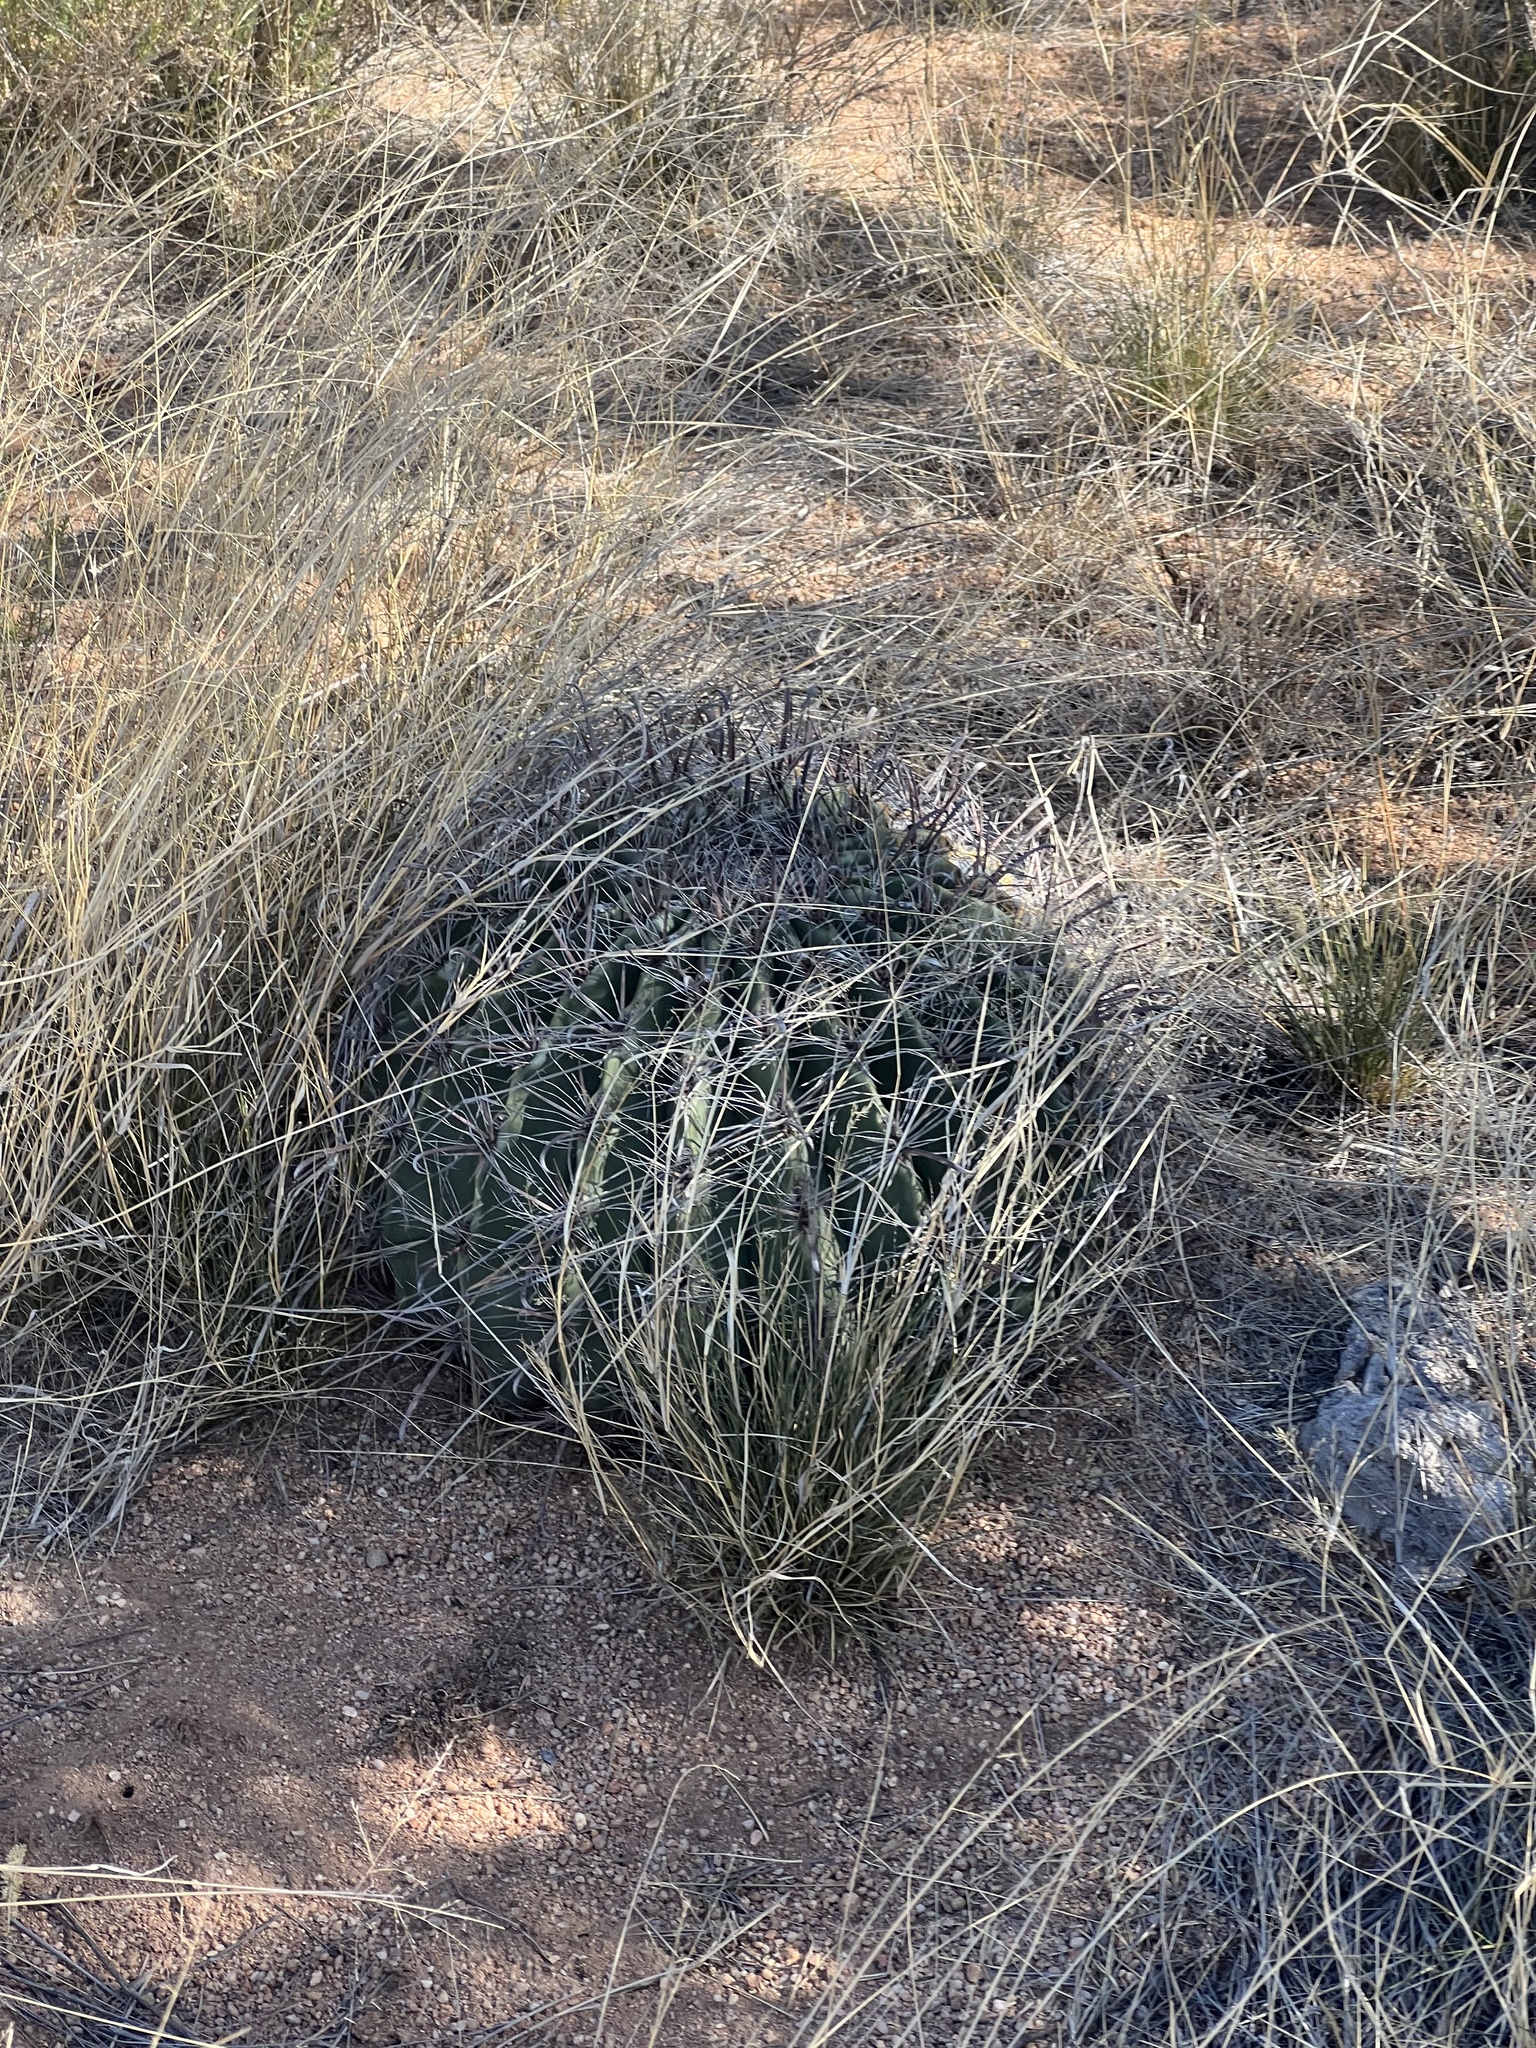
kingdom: Plantae
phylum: Tracheophyta
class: Magnoliopsida
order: Caryophyllales
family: Cactaceae
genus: Ferocactus
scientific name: Ferocactus wislizeni
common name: Candy barrel cactus
